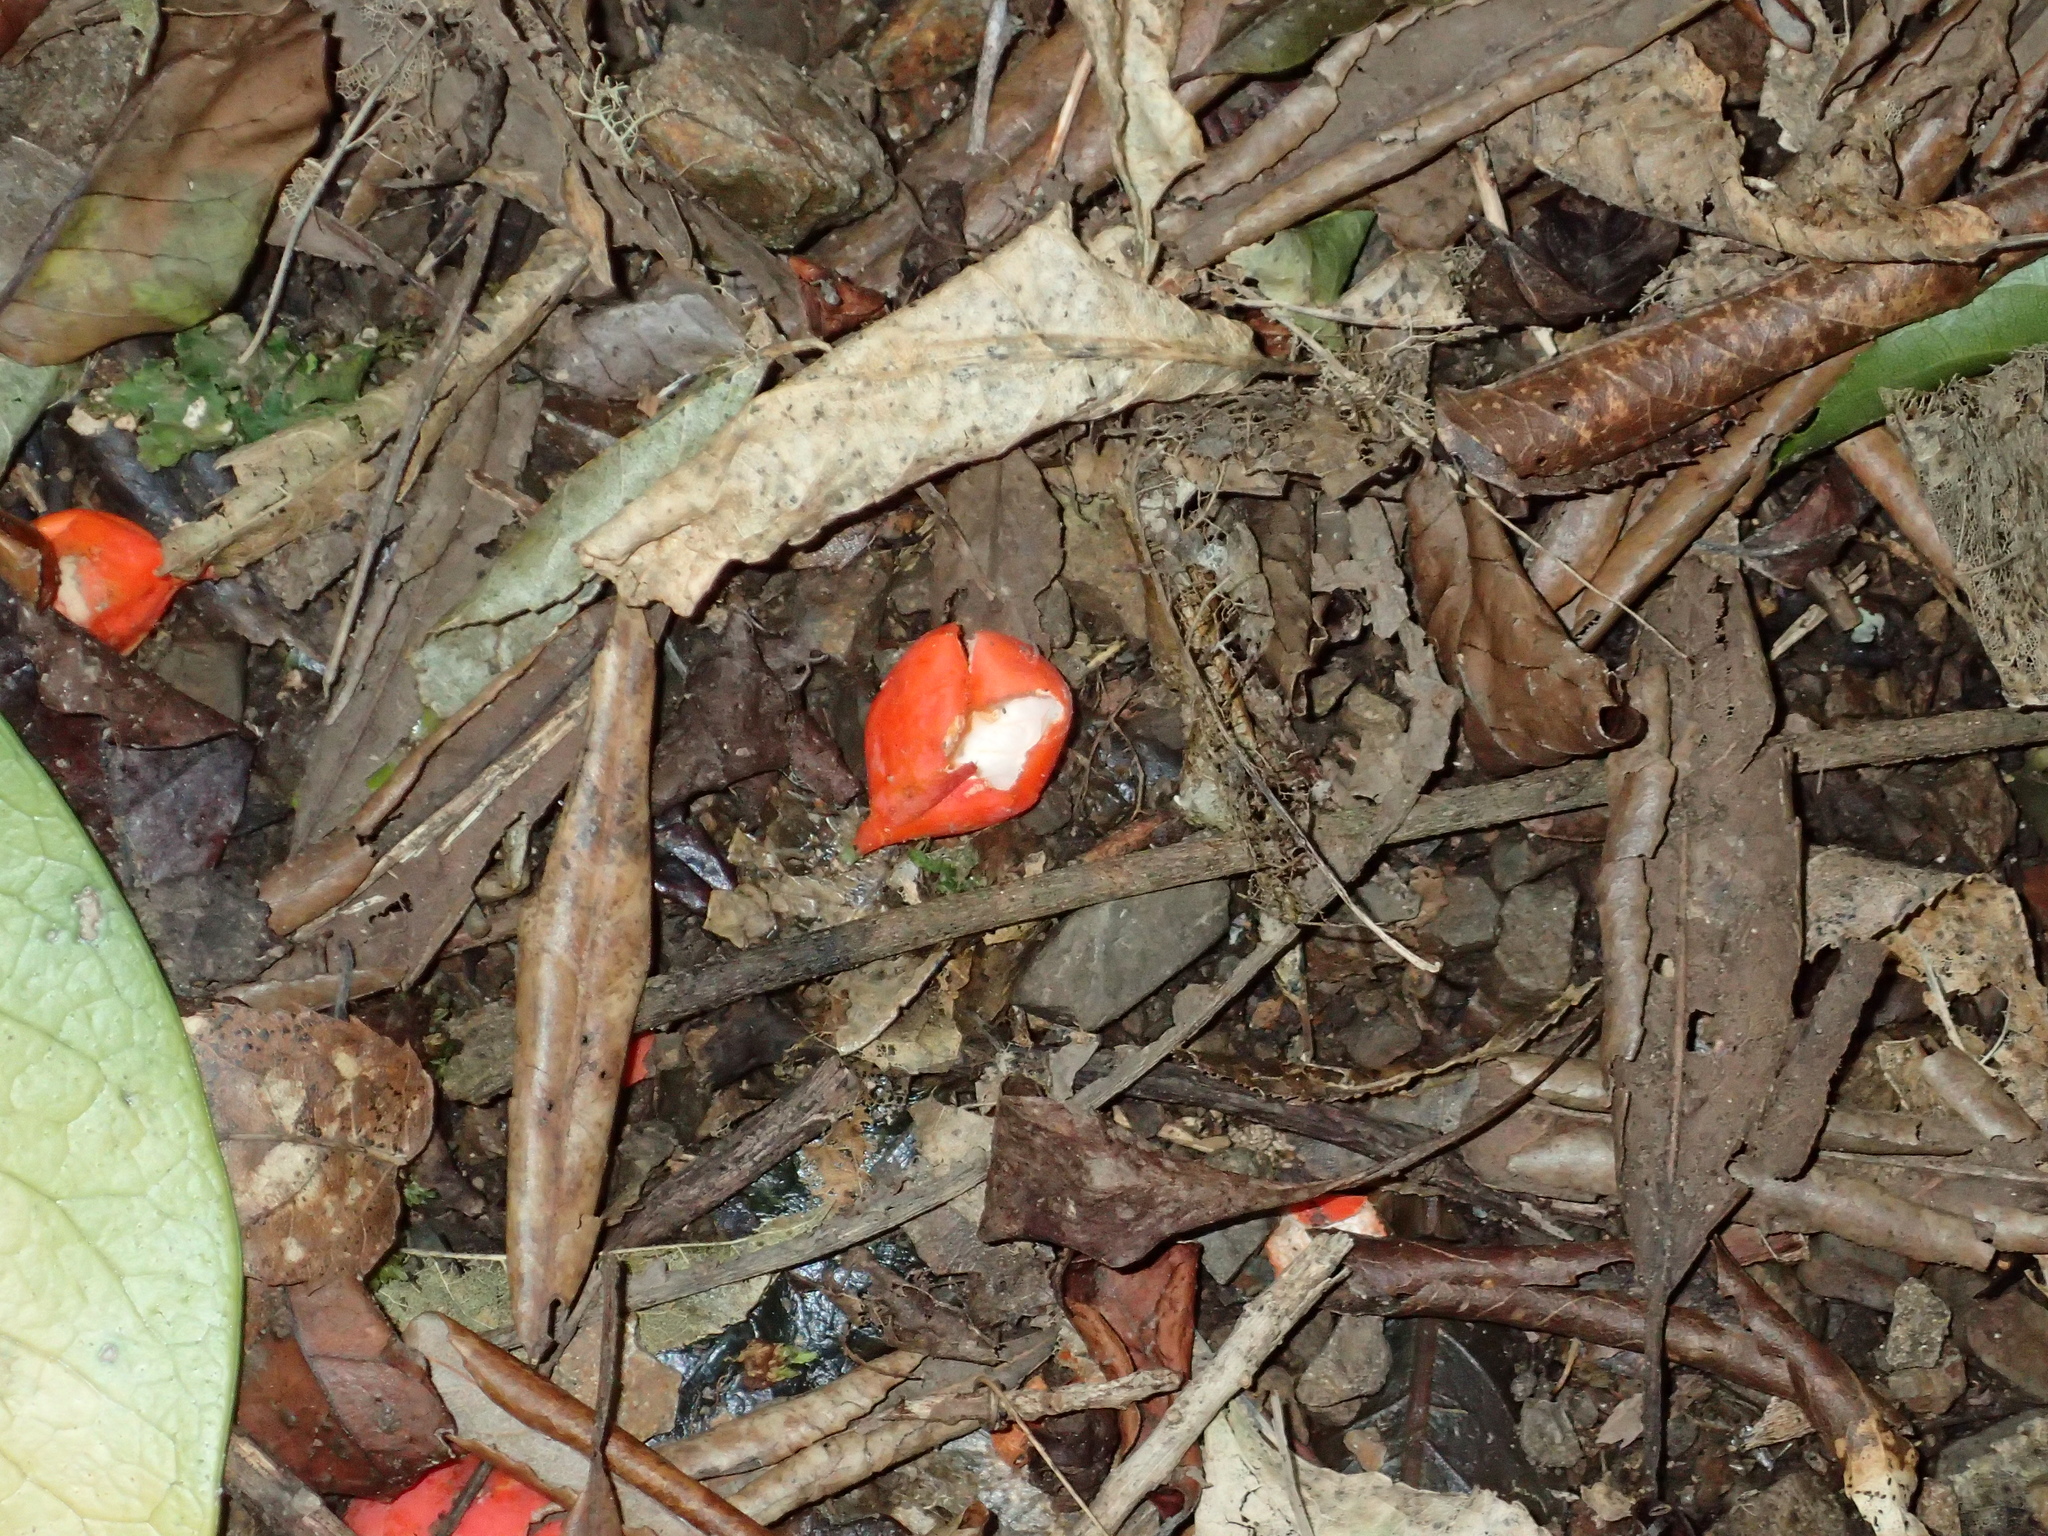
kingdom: Plantae
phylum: Tracheophyta
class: Magnoliopsida
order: Malpighiales
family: Passifloraceae
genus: Passiflora
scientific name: Passiflora tetrandra
